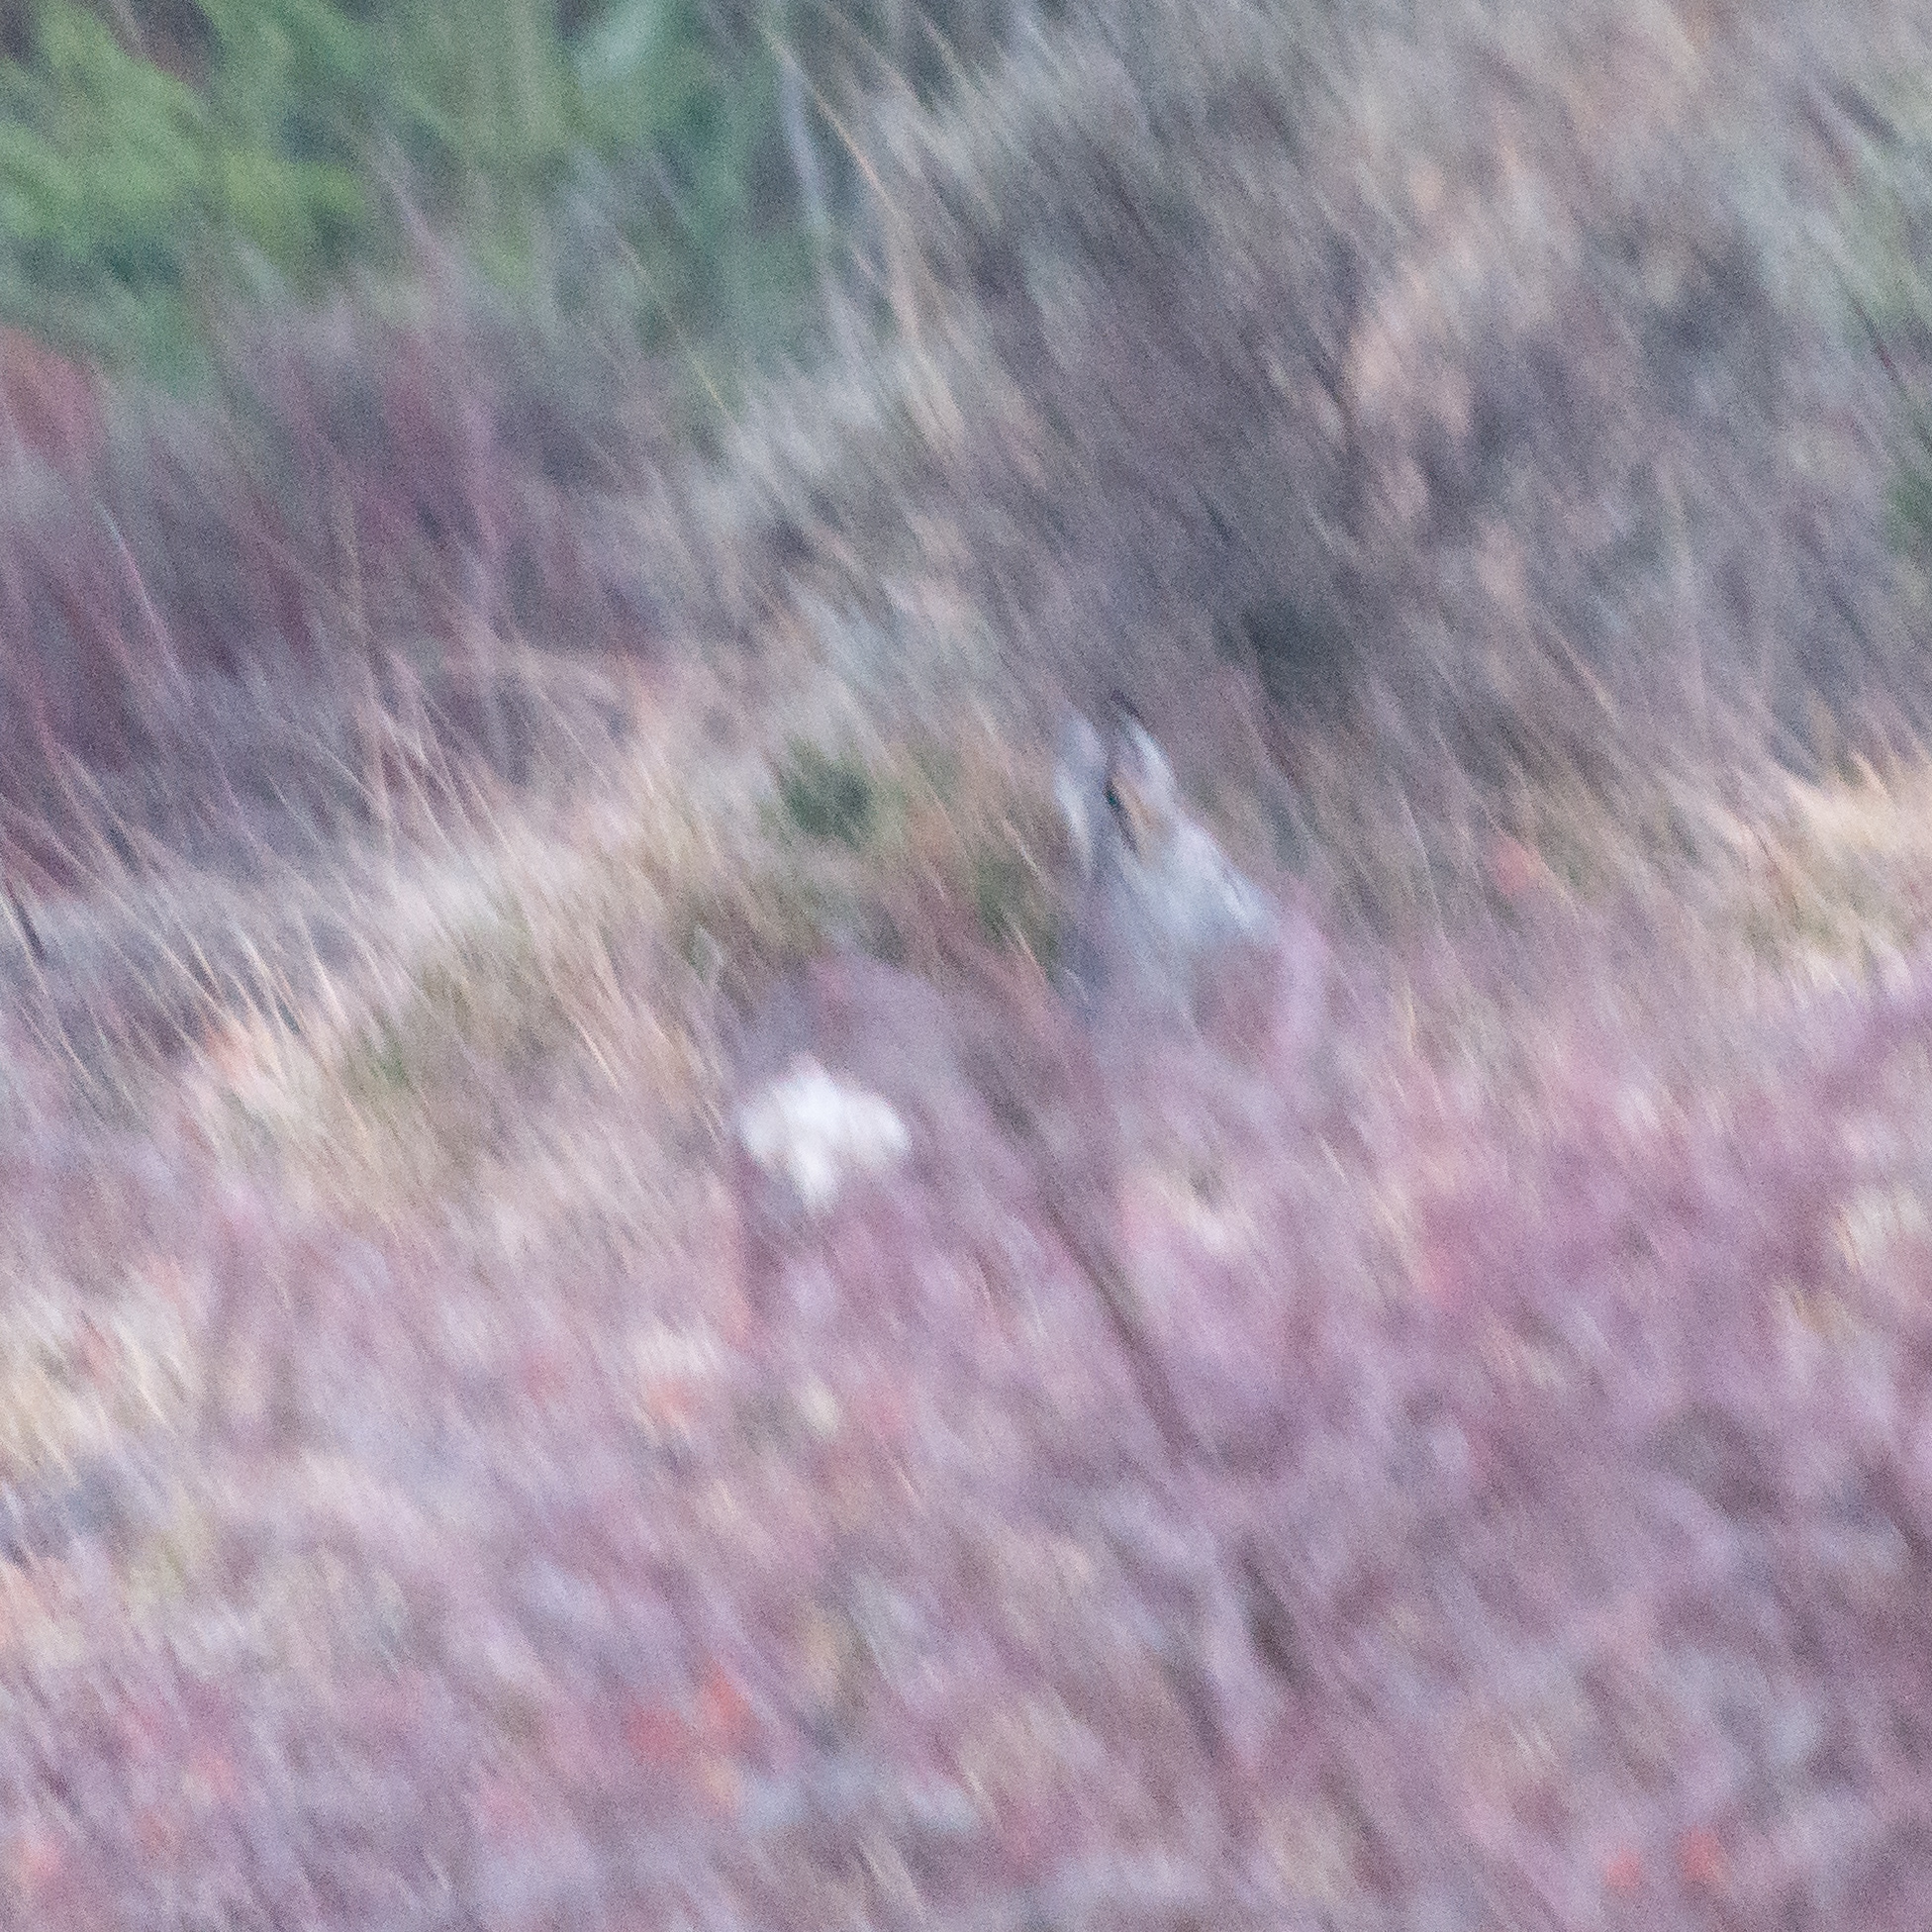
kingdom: Animalia
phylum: Chordata
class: Mammalia
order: Artiodactyla
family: Cervidae
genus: Capreolus
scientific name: Capreolus capreolus
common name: Western roe deer
